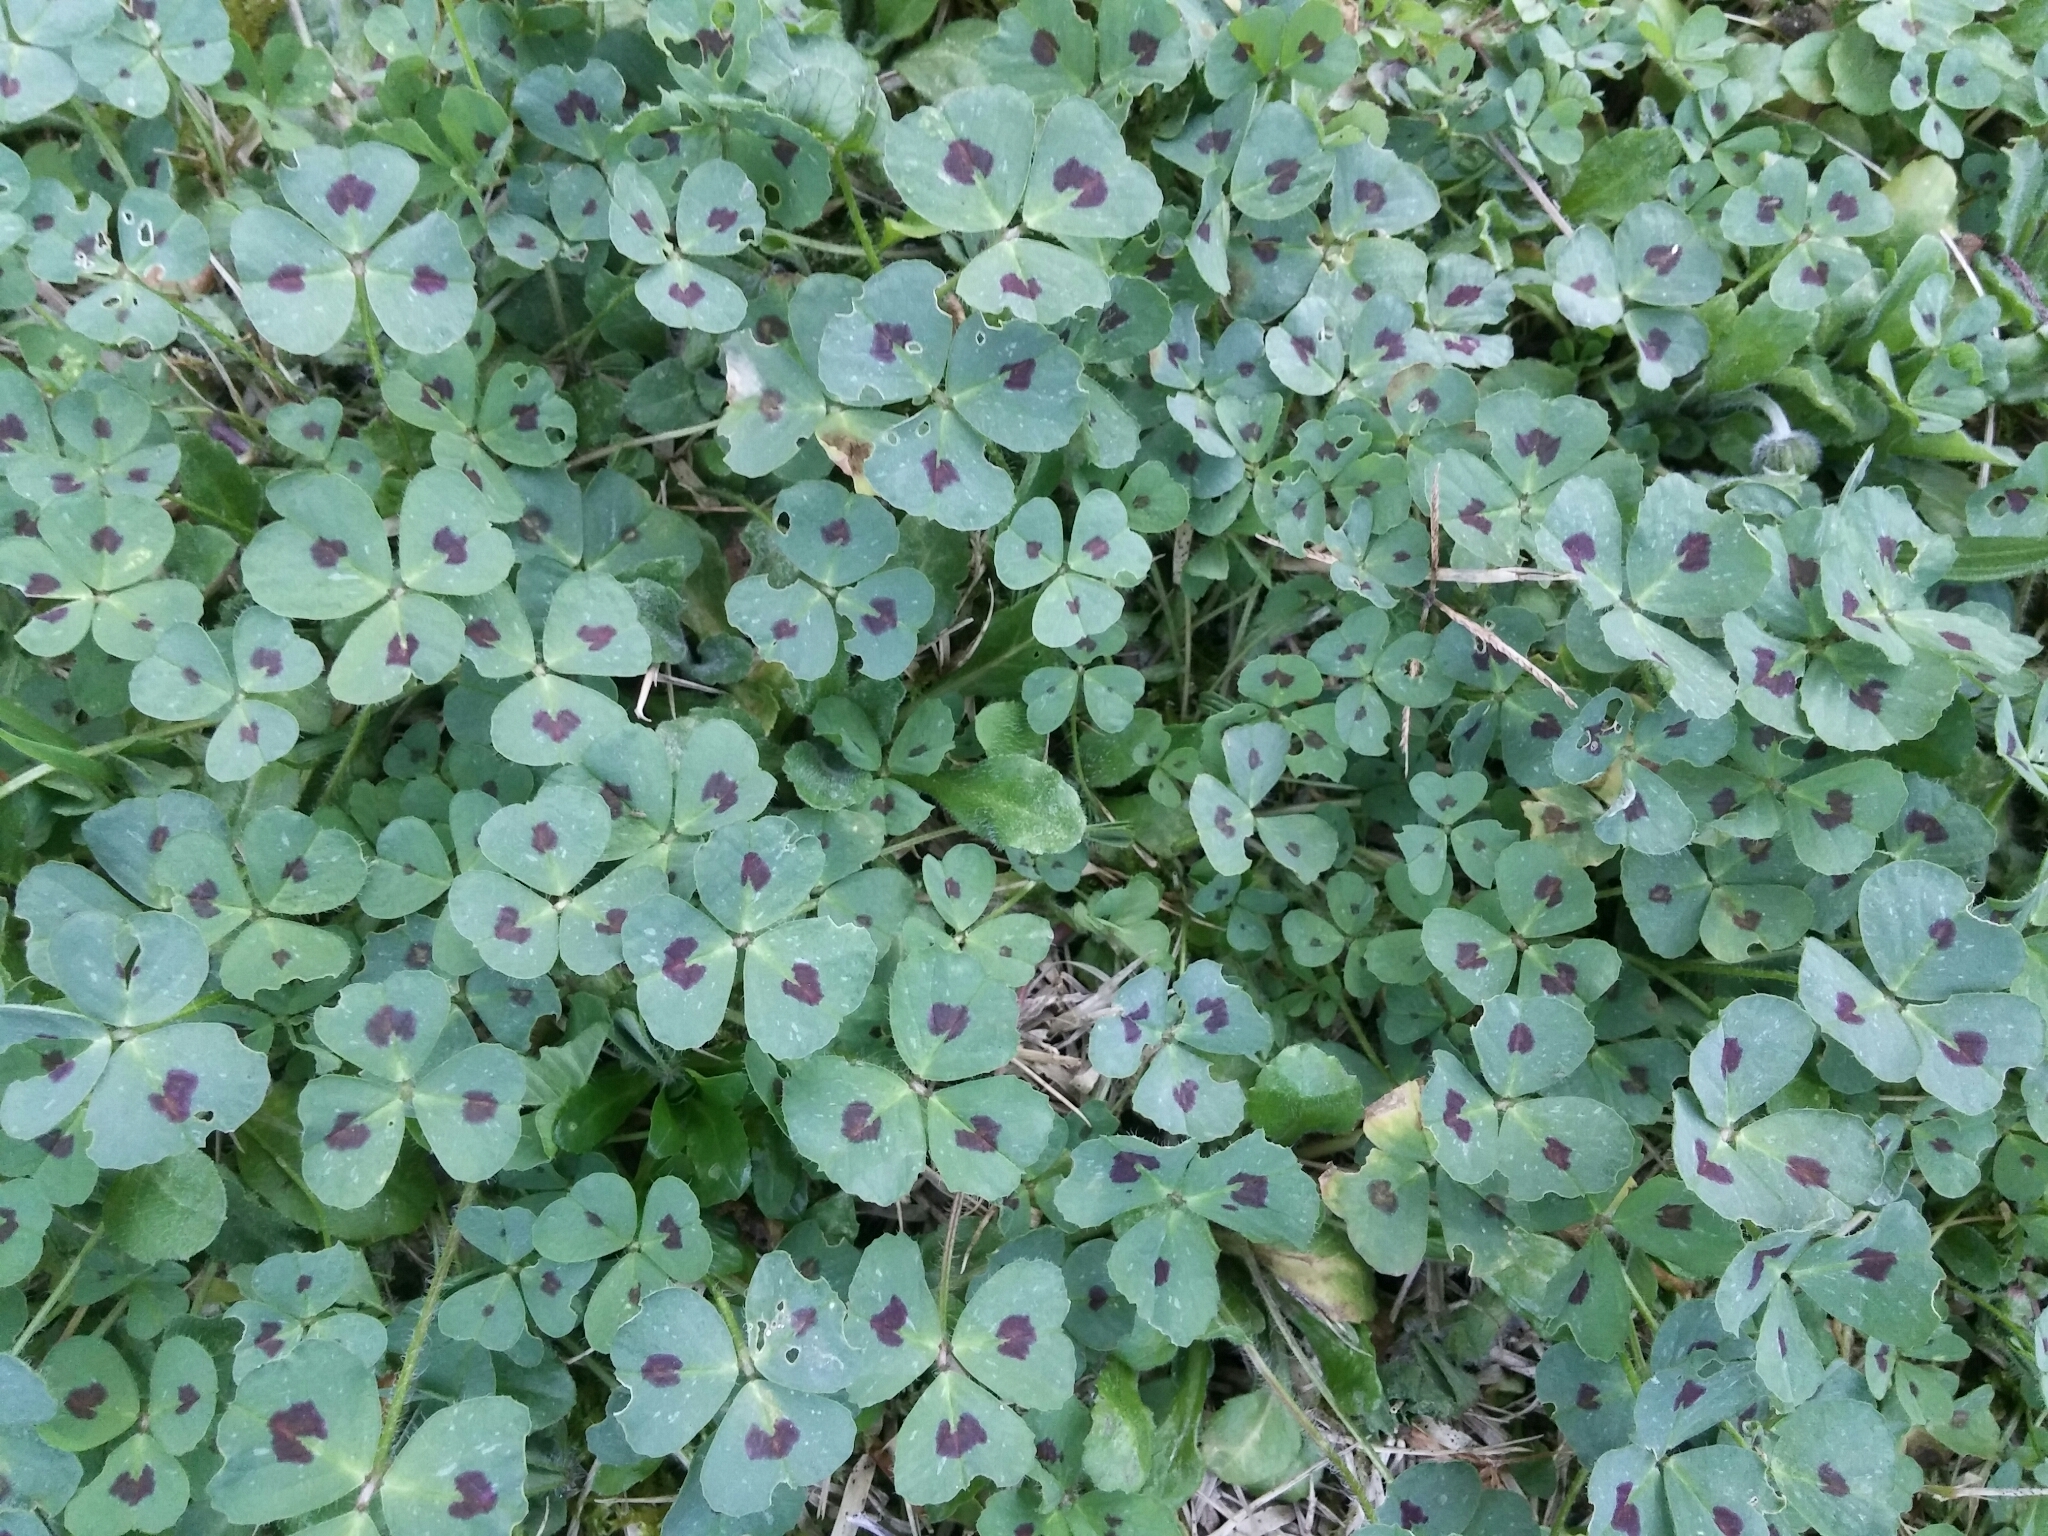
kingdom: Plantae
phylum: Tracheophyta
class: Magnoliopsida
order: Fabales
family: Fabaceae
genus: Medicago
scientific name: Medicago arabica
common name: Spotted medick
